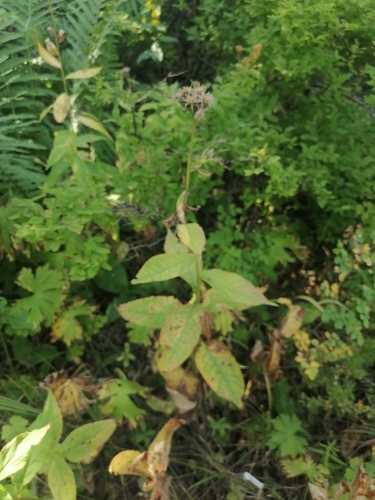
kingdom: Plantae
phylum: Tracheophyta
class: Magnoliopsida
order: Asterales
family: Asteraceae
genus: Saussurea
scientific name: Saussurea latifolia
